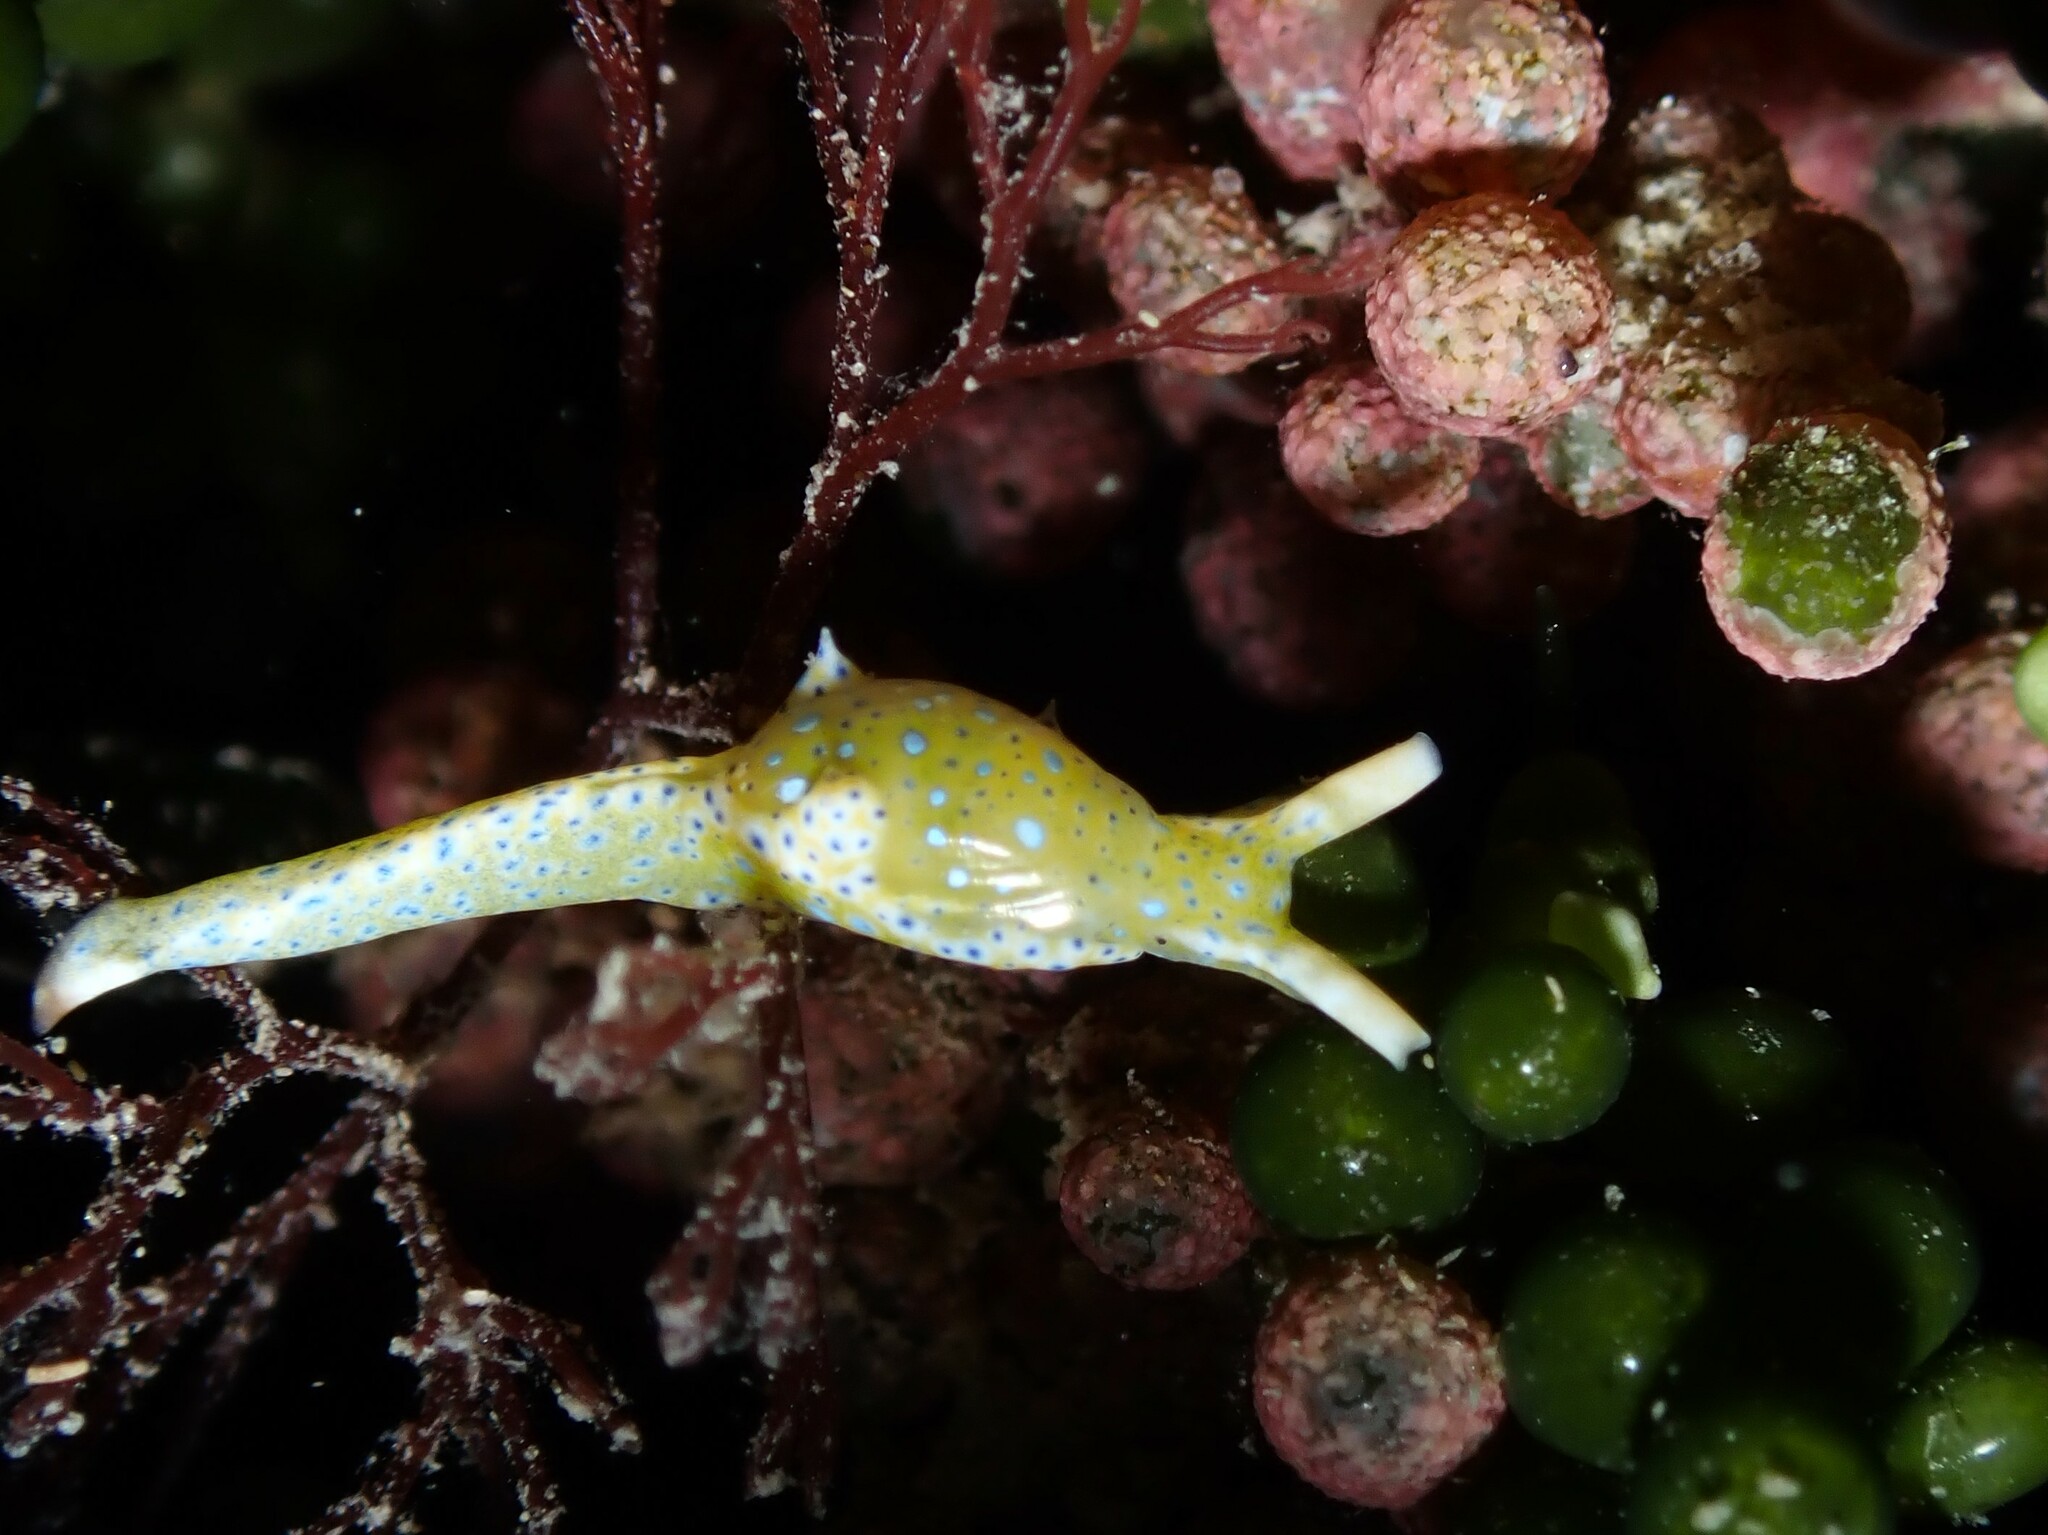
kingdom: Animalia
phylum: Mollusca
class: Gastropoda
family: Oxynoidae
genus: Oxynoe
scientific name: Oxynoe viridis
